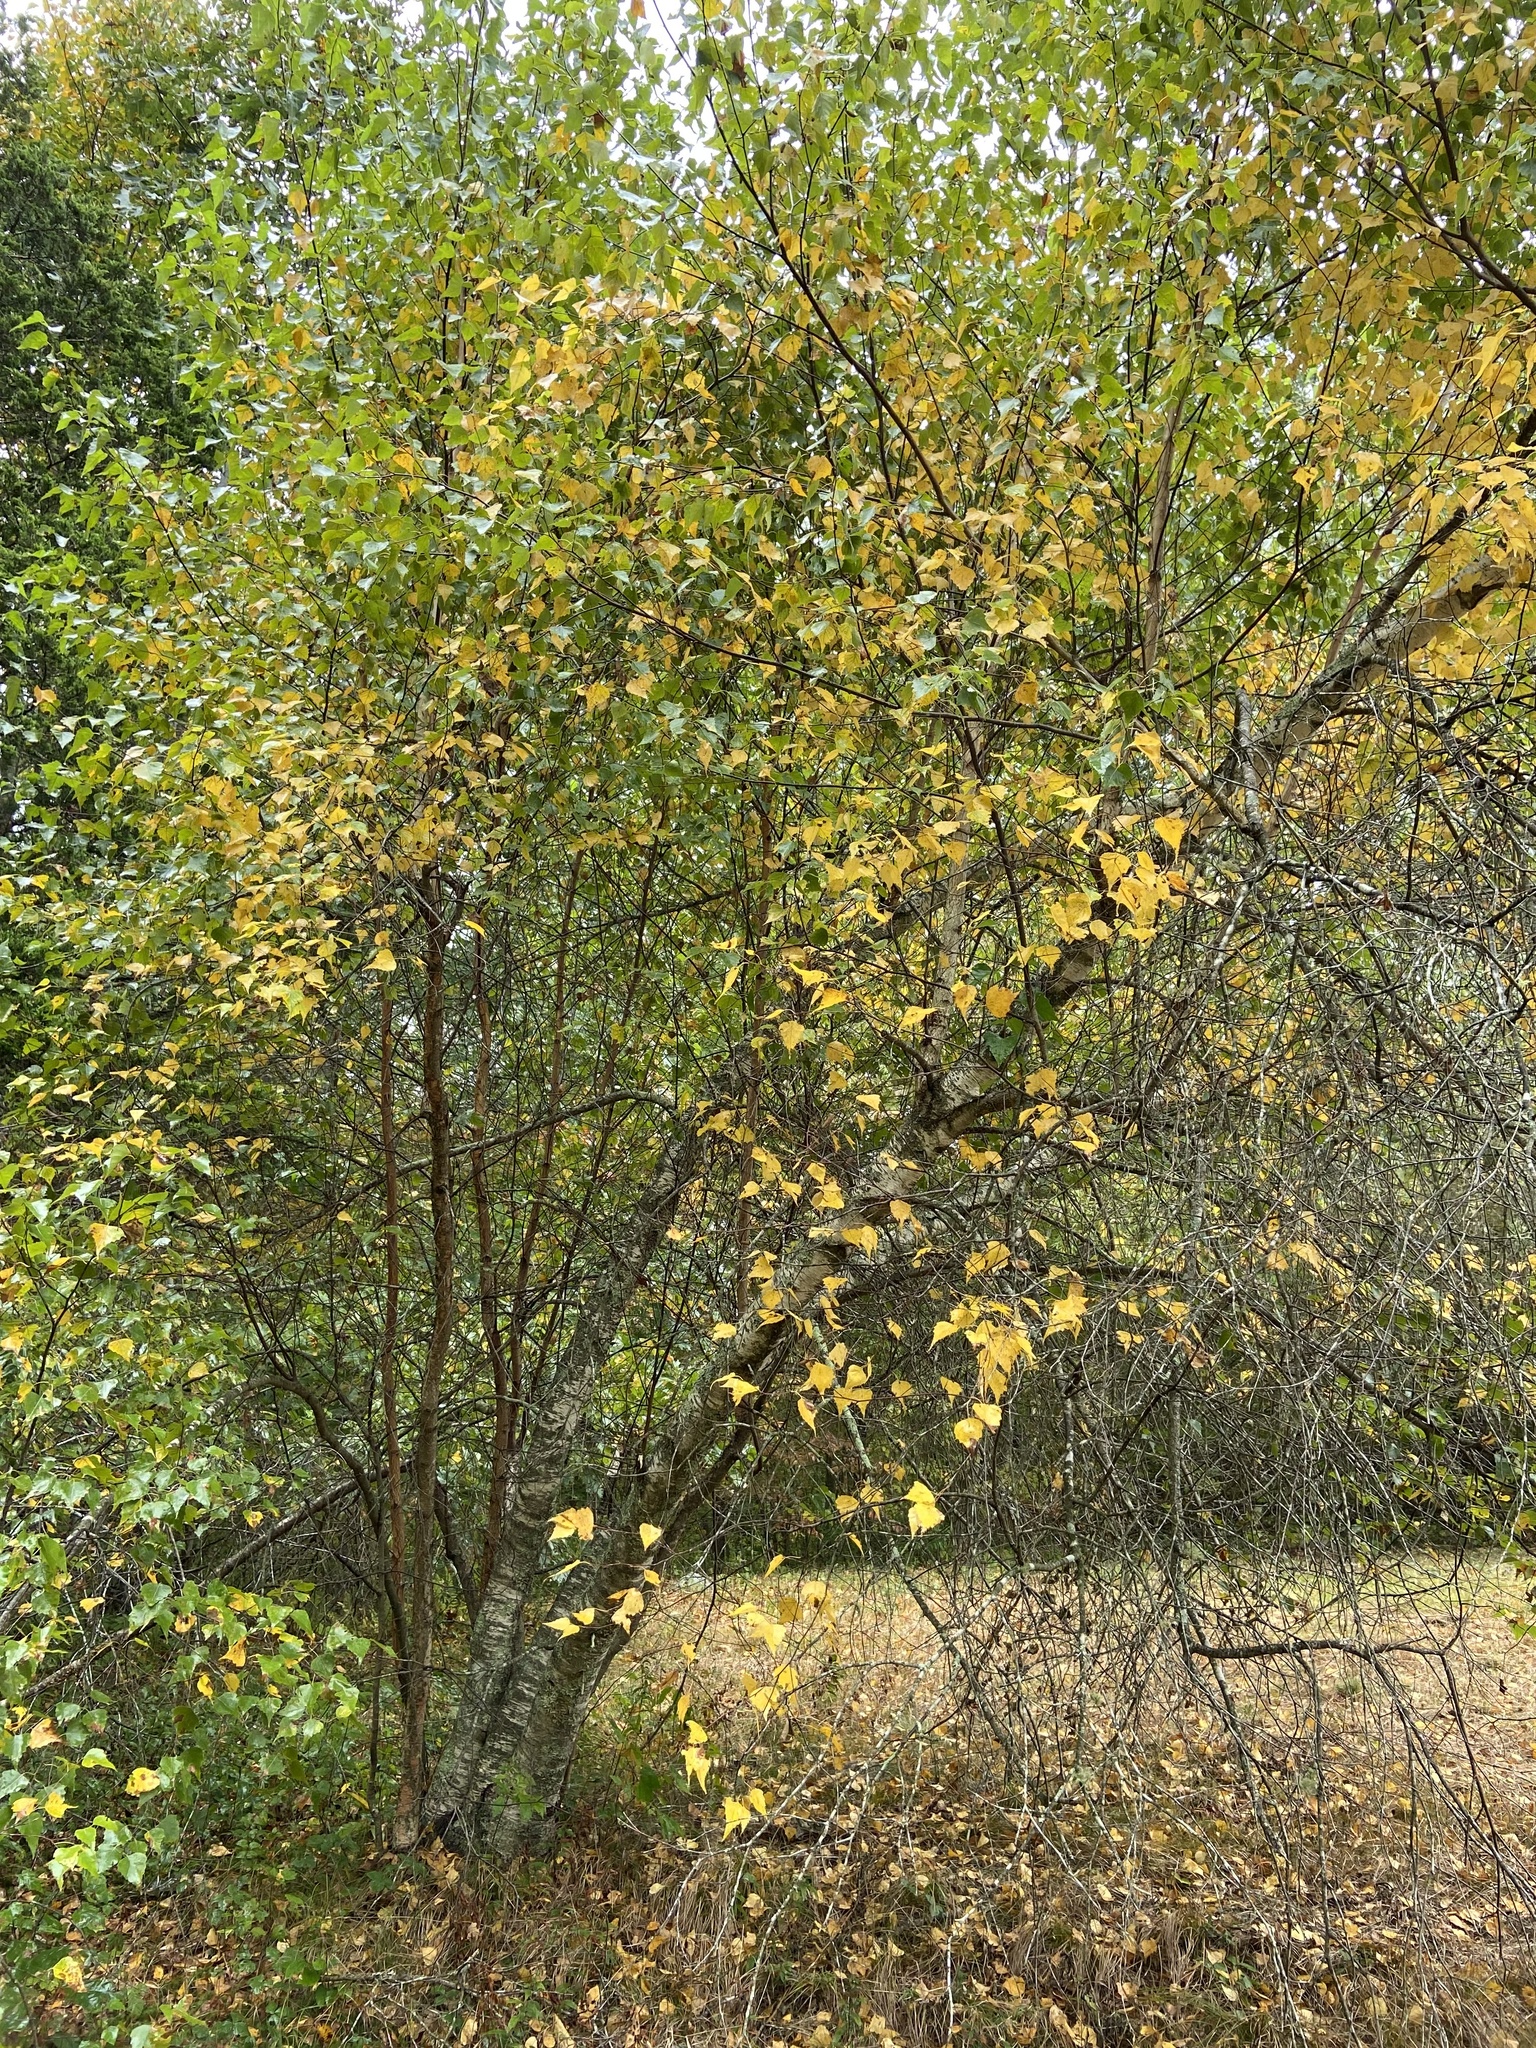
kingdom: Plantae
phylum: Tracheophyta
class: Magnoliopsida
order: Fagales
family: Betulaceae
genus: Betula
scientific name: Betula populifolia
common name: Fire birch
